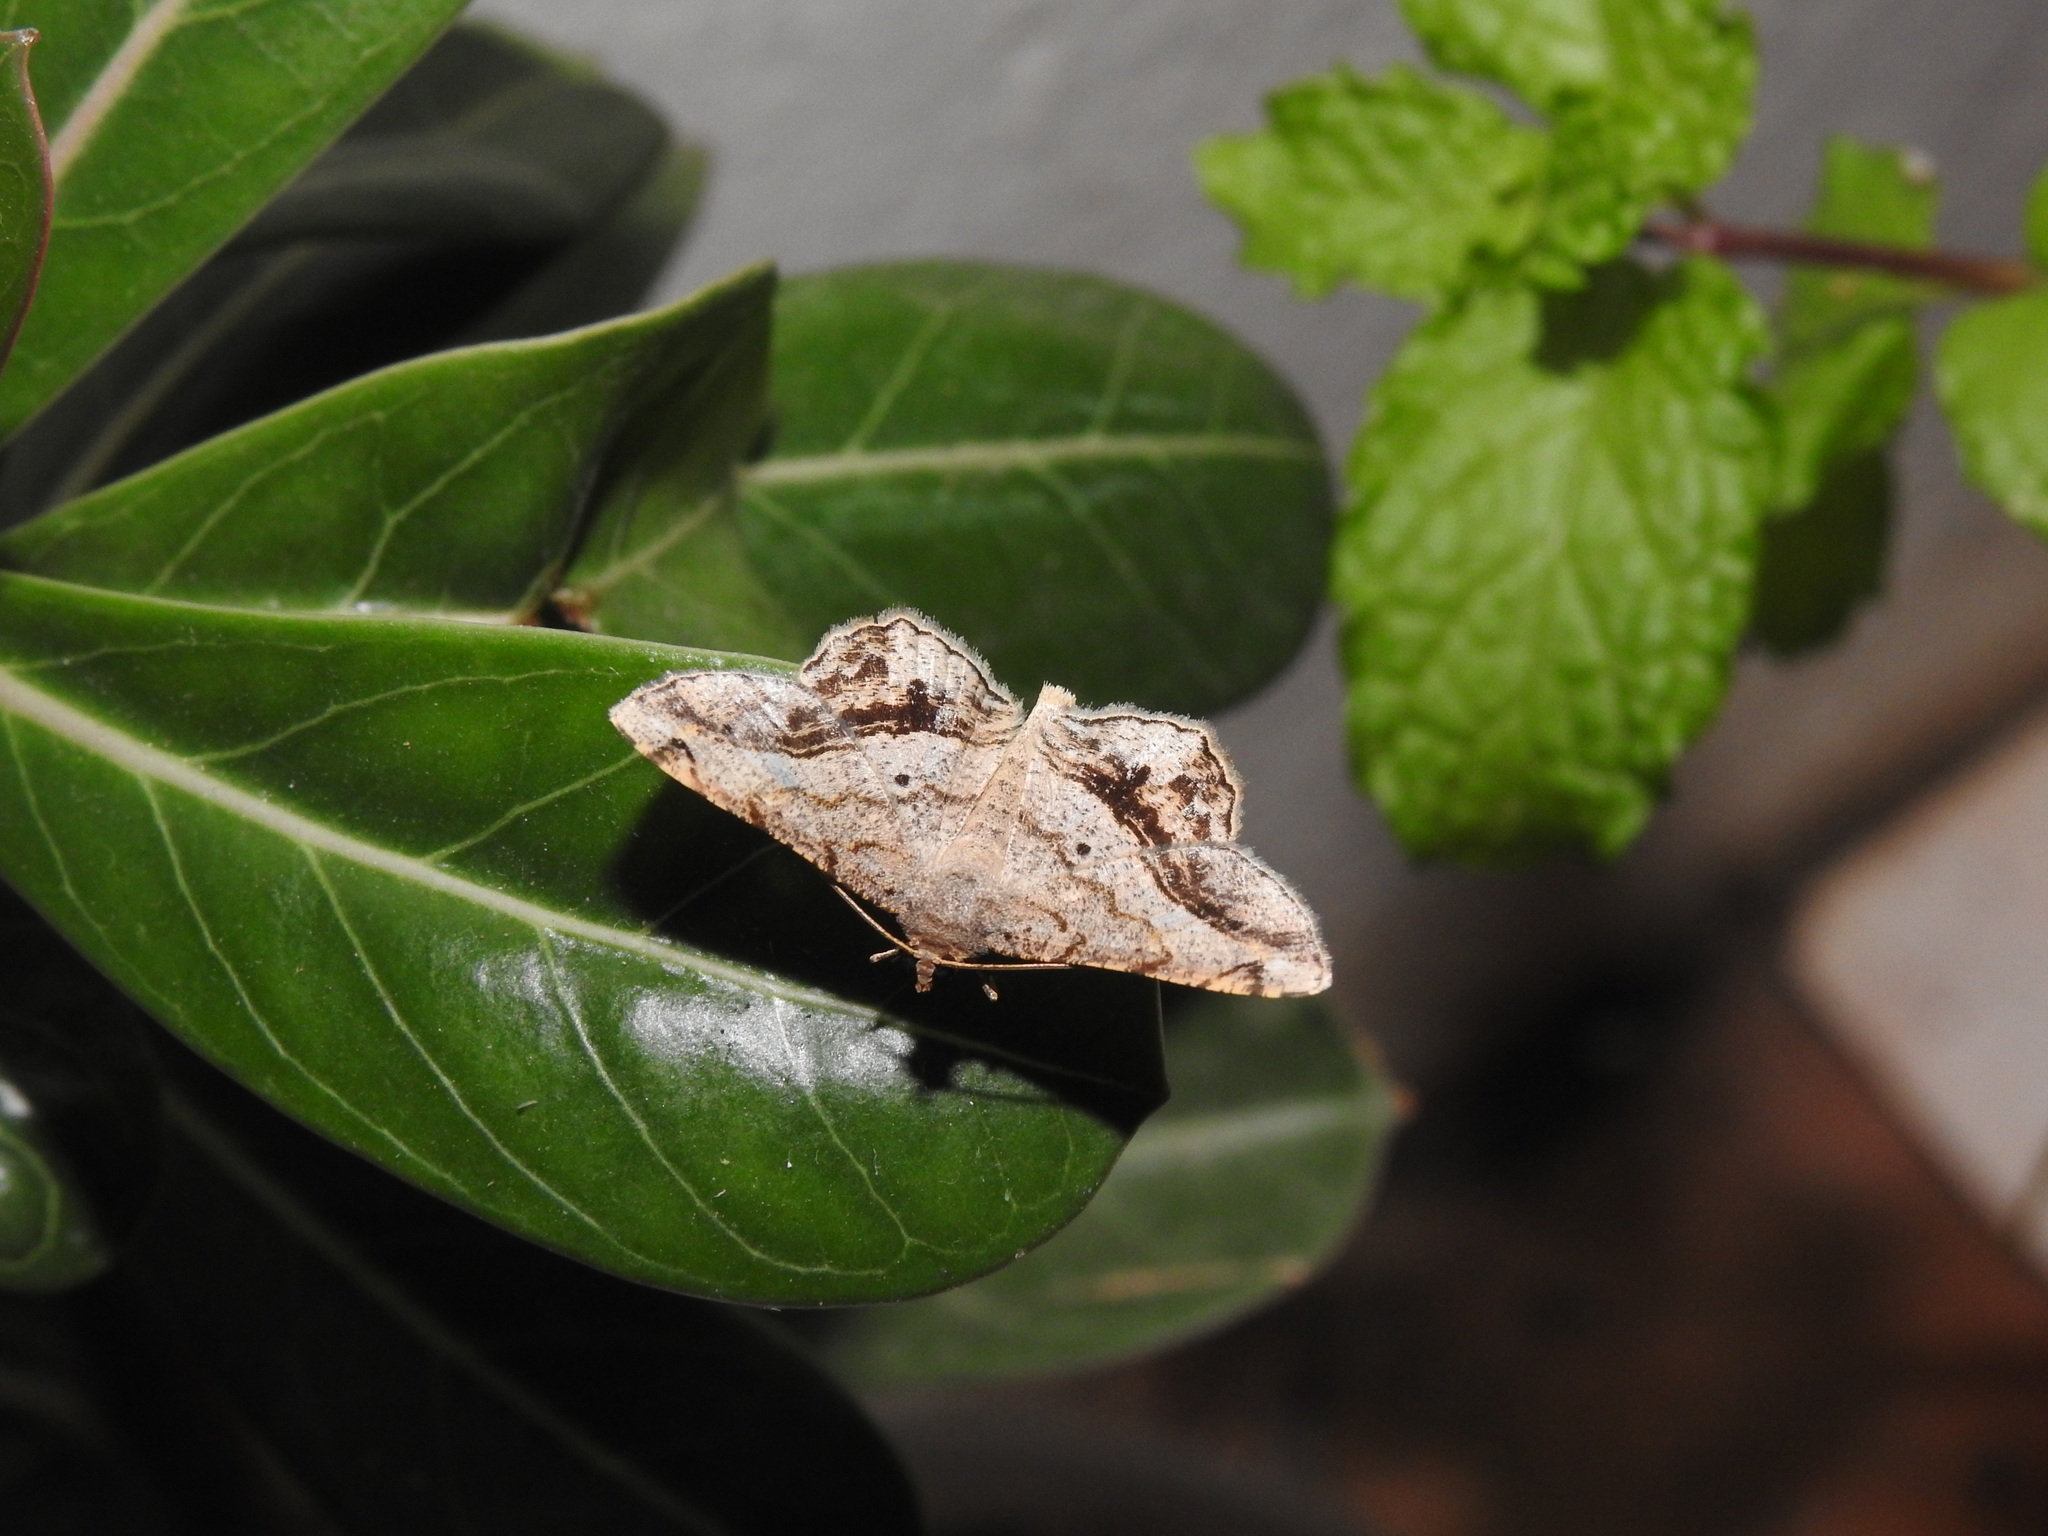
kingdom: Animalia
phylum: Arthropoda
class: Insecta
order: Lepidoptera
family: Geometridae
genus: Chiasmia
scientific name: Chiasmia pluviata
